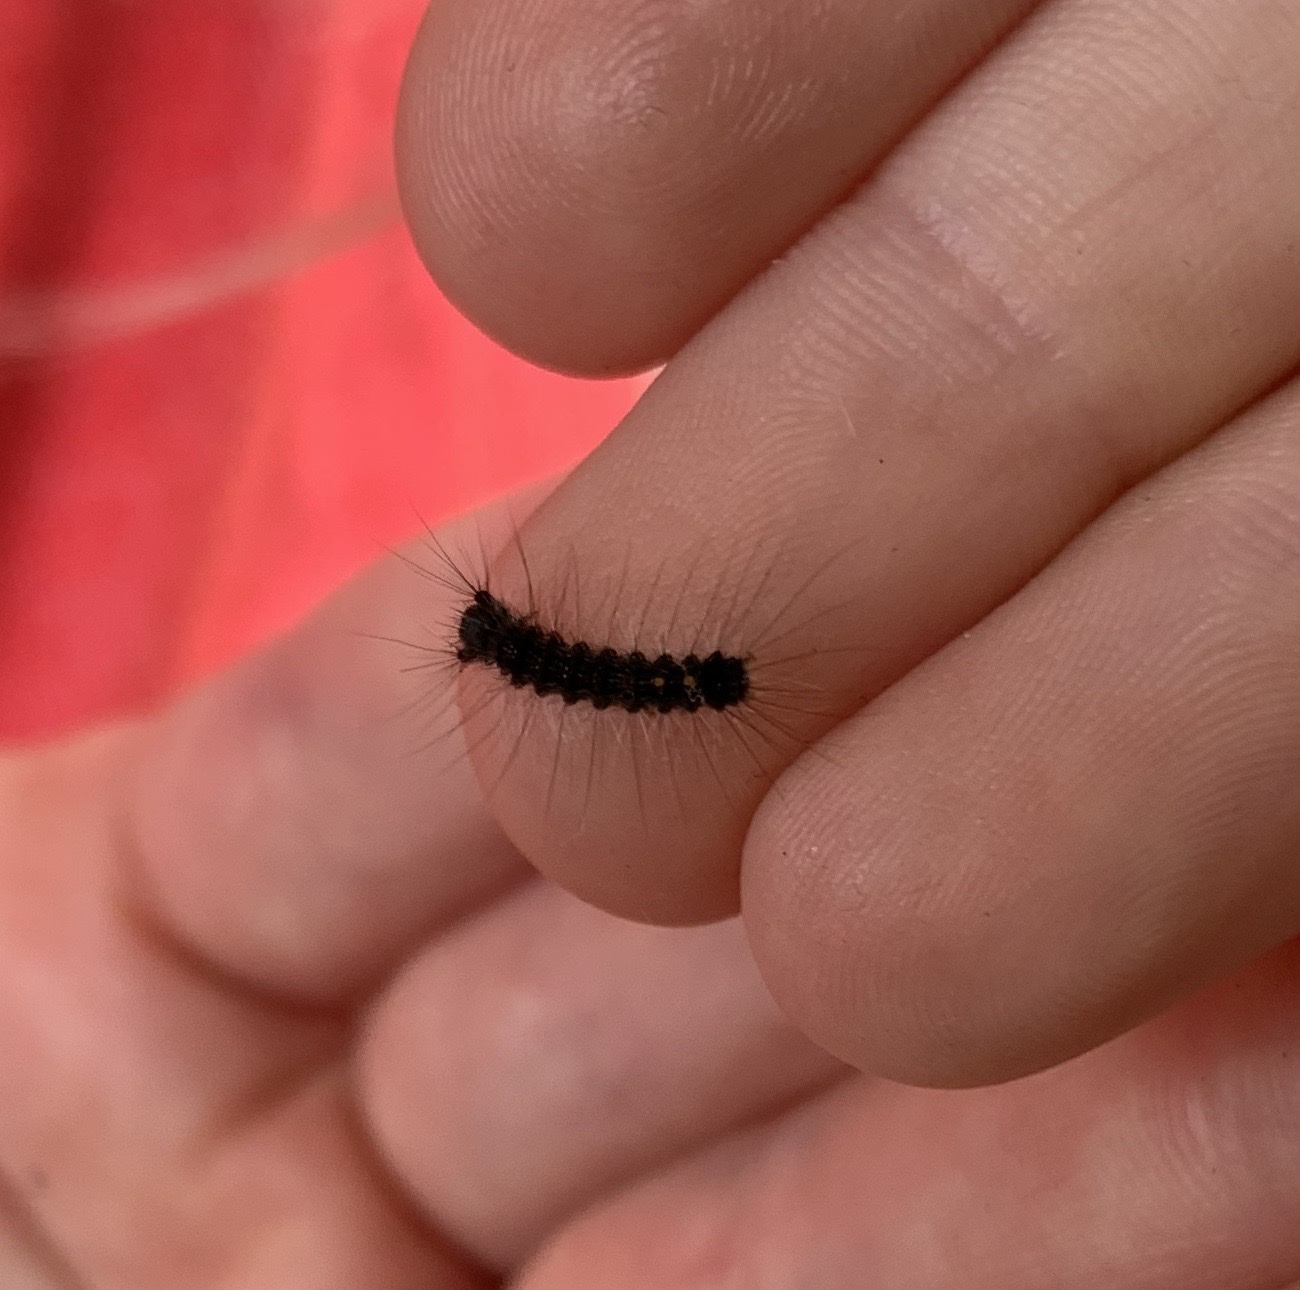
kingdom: Animalia
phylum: Arthropoda
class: Insecta
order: Lepidoptera
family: Erebidae
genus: Lymantria
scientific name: Lymantria dispar
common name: Gypsy moth
